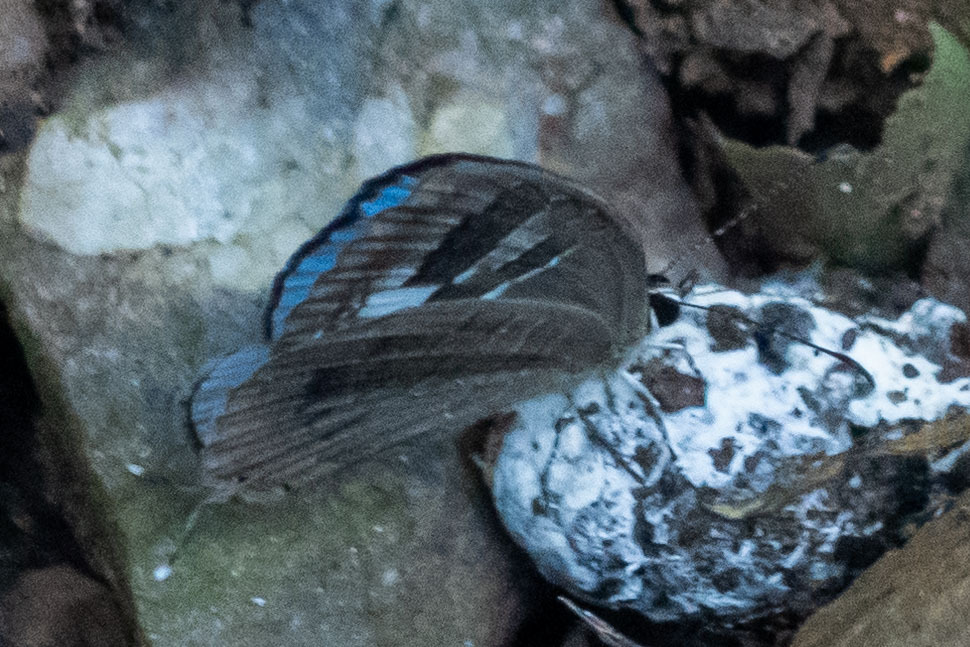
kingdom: Animalia
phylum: Arthropoda
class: Insecta
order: Lepidoptera
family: Lycaenidae
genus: Jamides
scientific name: Jamides pura
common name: White cerulean
